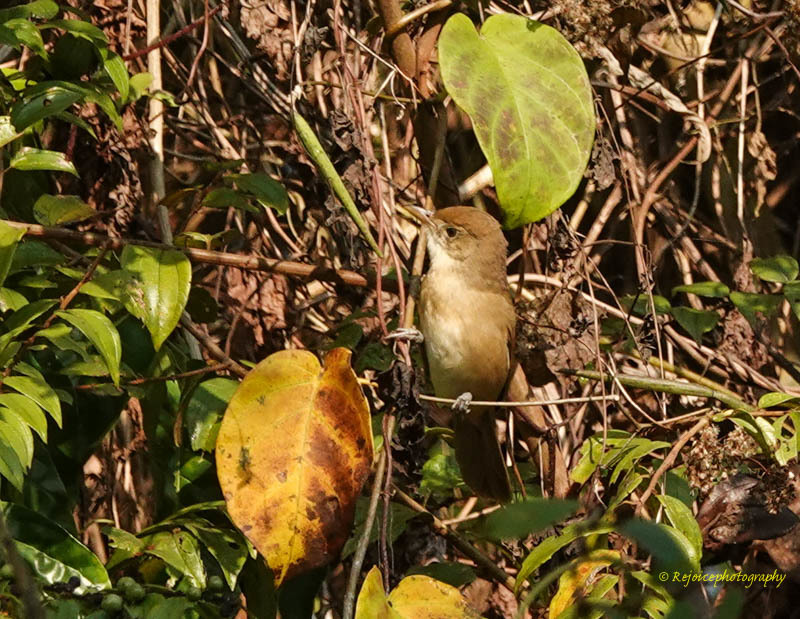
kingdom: Animalia
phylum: Chordata
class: Aves
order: Passeriformes
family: Acrocephalidae
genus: Iduna
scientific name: Iduna aedon
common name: Thick-billed warbler
